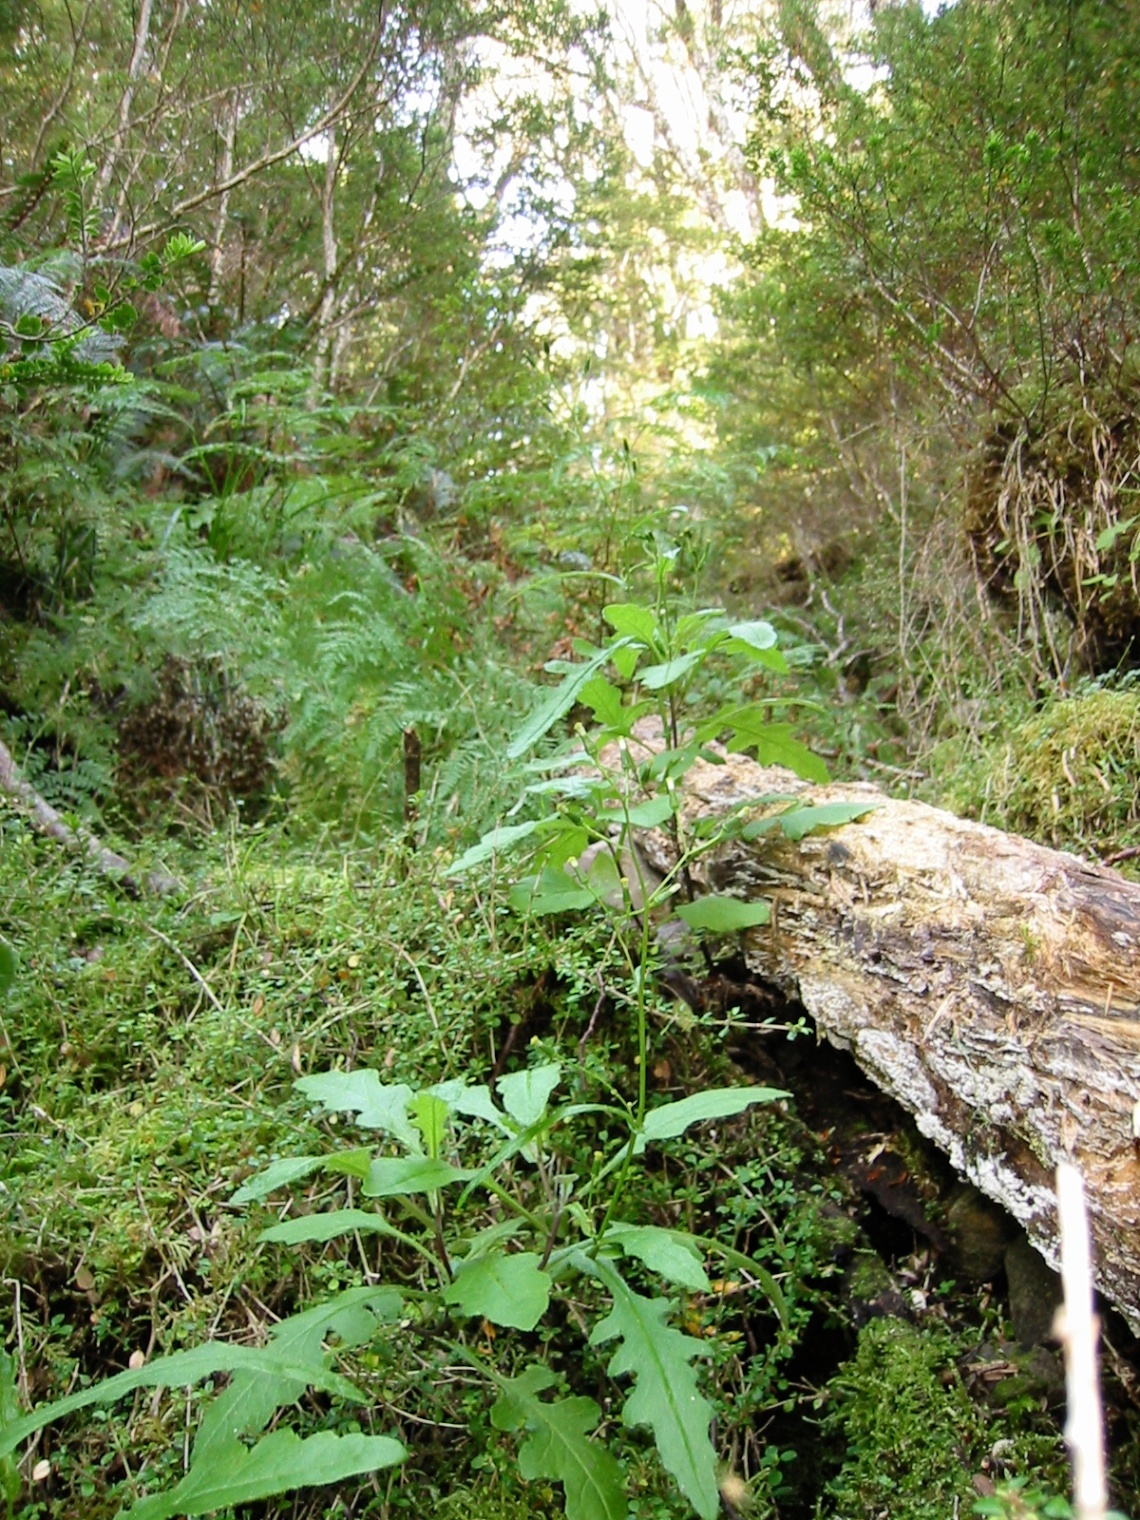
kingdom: Plantae
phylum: Tracheophyta
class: Magnoliopsida
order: Asterales
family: Asteraceae
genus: Senecio
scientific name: Senecio wairauensis
